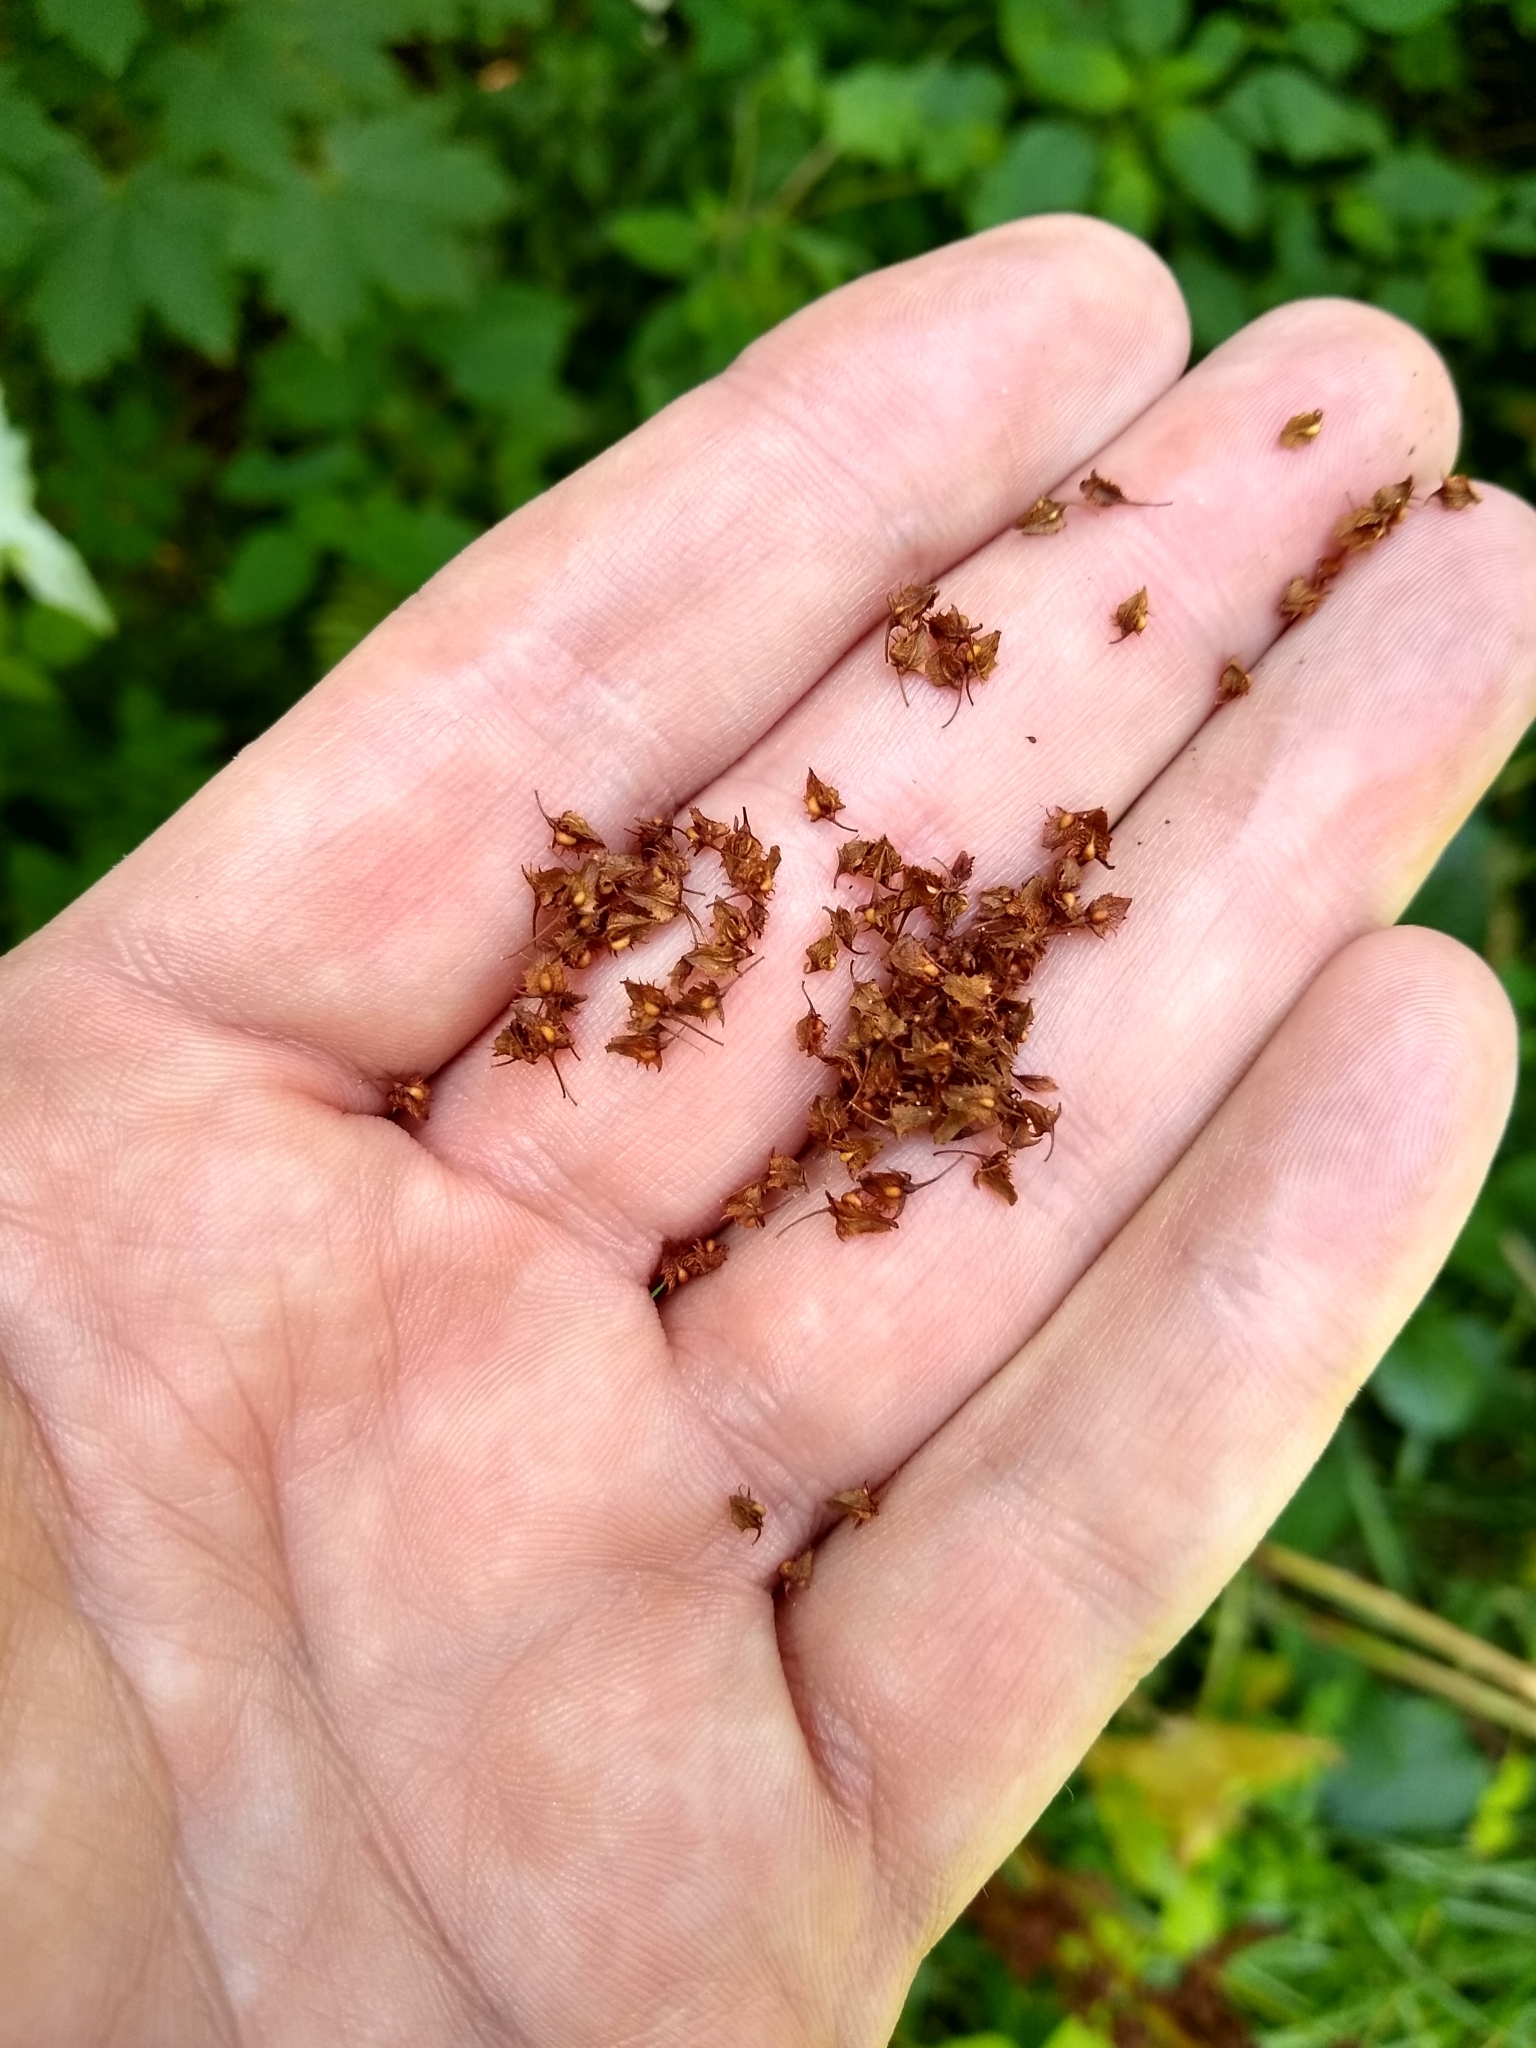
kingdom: Plantae
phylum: Tracheophyta
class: Magnoliopsida
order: Caryophyllales
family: Polygonaceae
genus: Rumex
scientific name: Rumex obtusifolius
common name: Bitter dock
